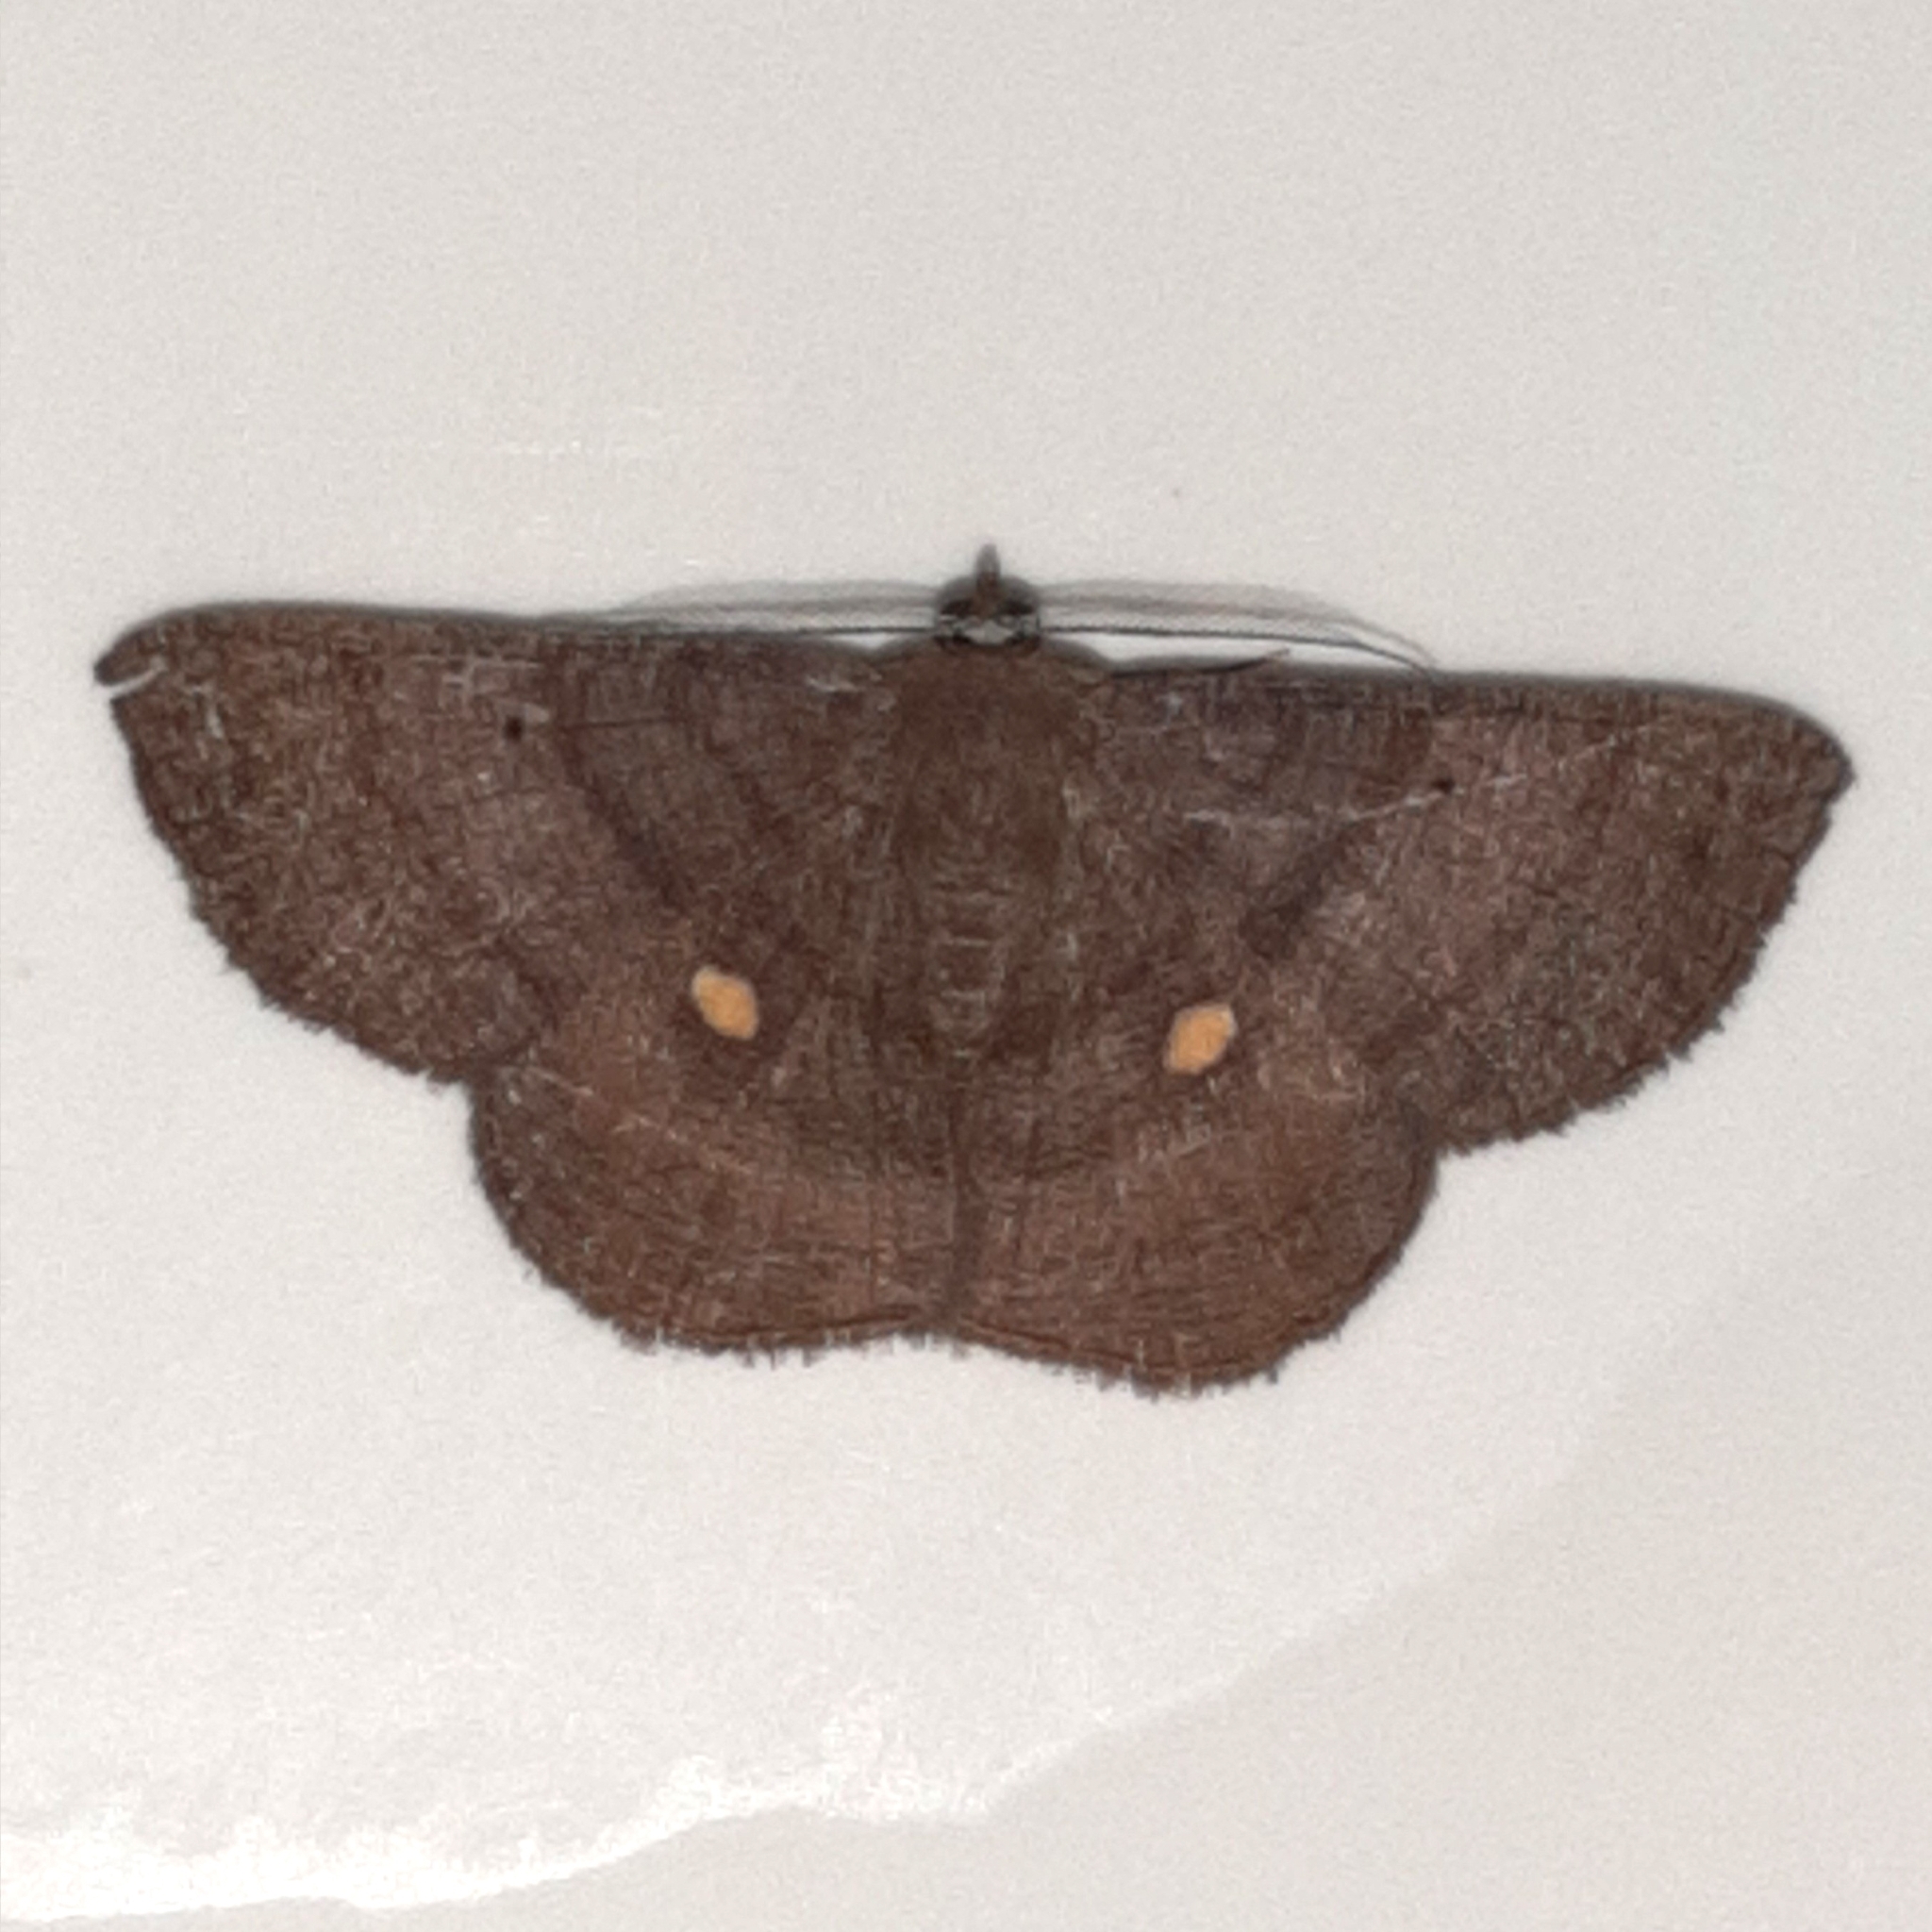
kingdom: Animalia
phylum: Arthropoda
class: Insecta
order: Lepidoptera
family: Geometridae
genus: Parilexia
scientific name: Parilexia cermala
